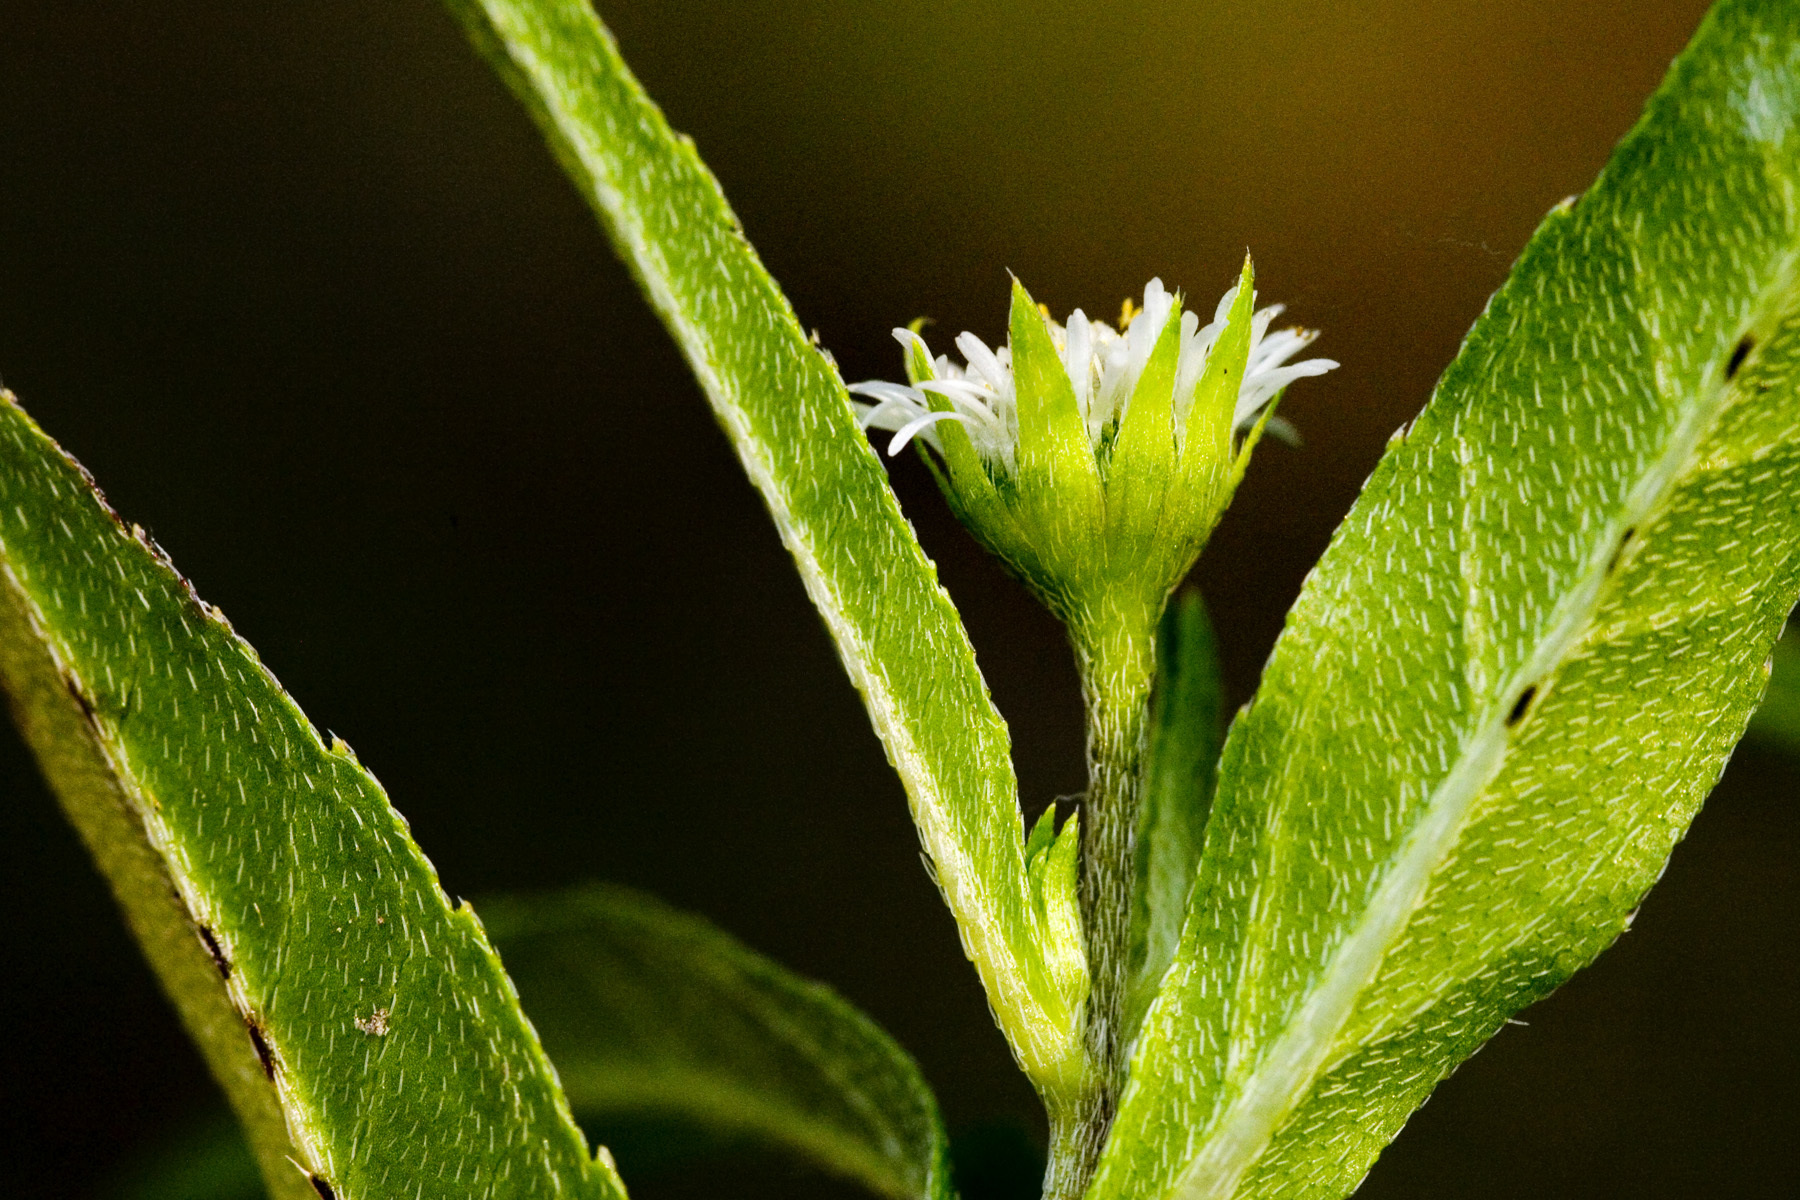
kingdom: Plantae
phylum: Tracheophyta
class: Magnoliopsida
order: Asterales
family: Asteraceae
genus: Eclipta
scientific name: Eclipta prostrata
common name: False daisy
